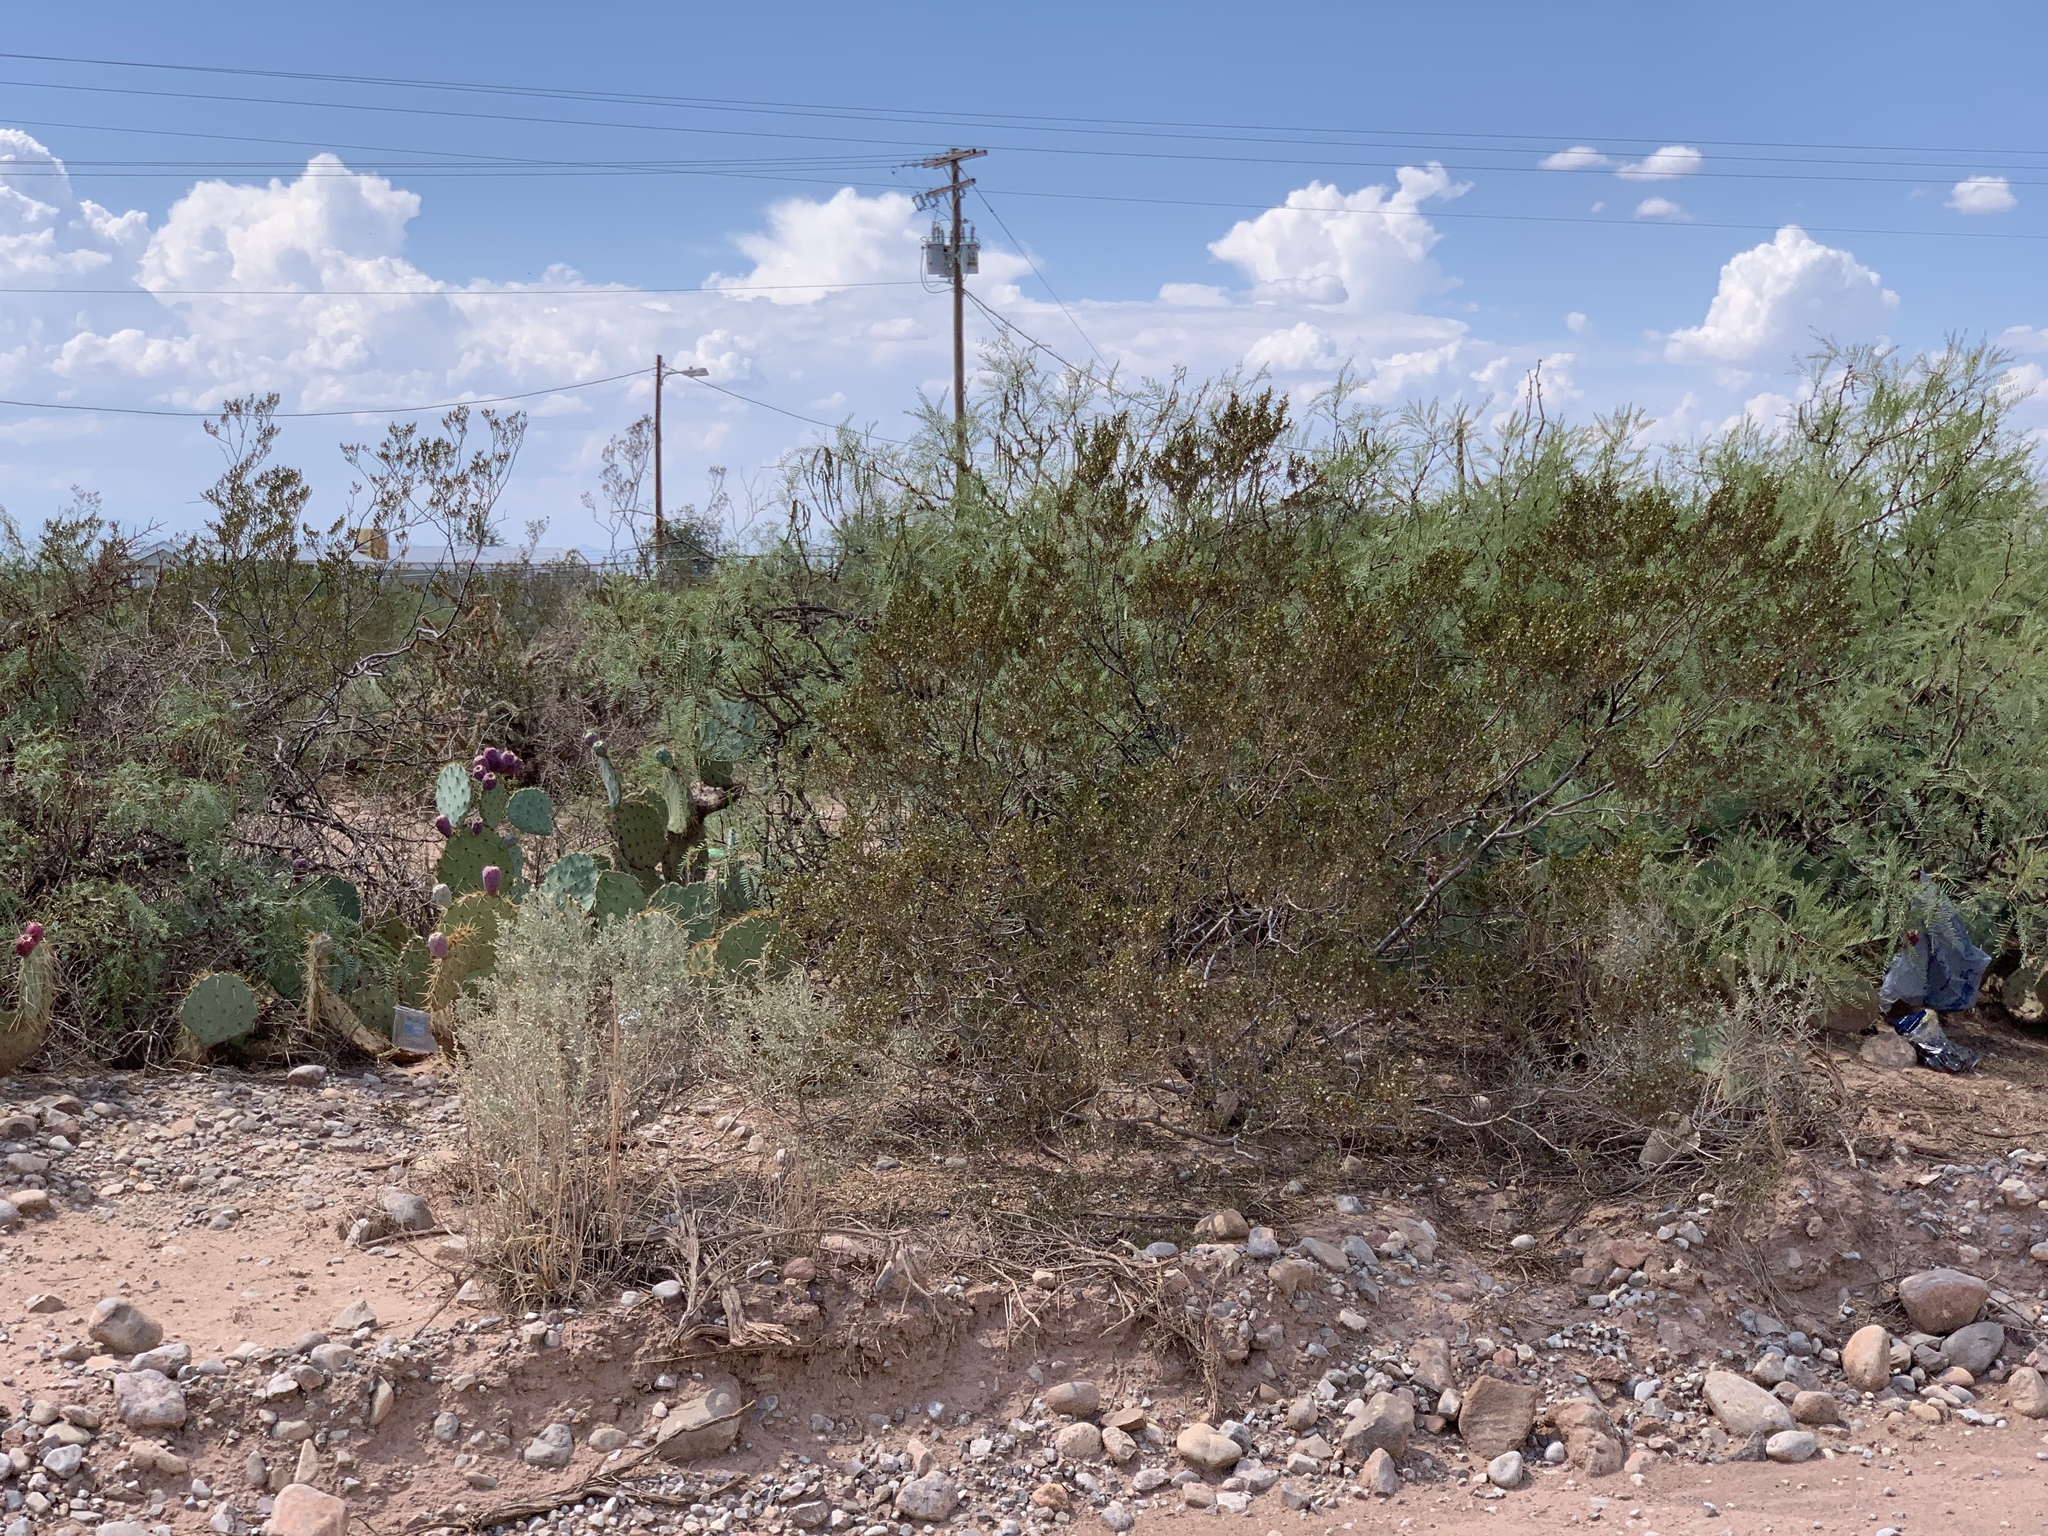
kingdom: Plantae
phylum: Tracheophyta
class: Magnoliopsida
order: Zygophyllales
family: Zygophyllaceae
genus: Larrea
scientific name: Larrea tridentata
